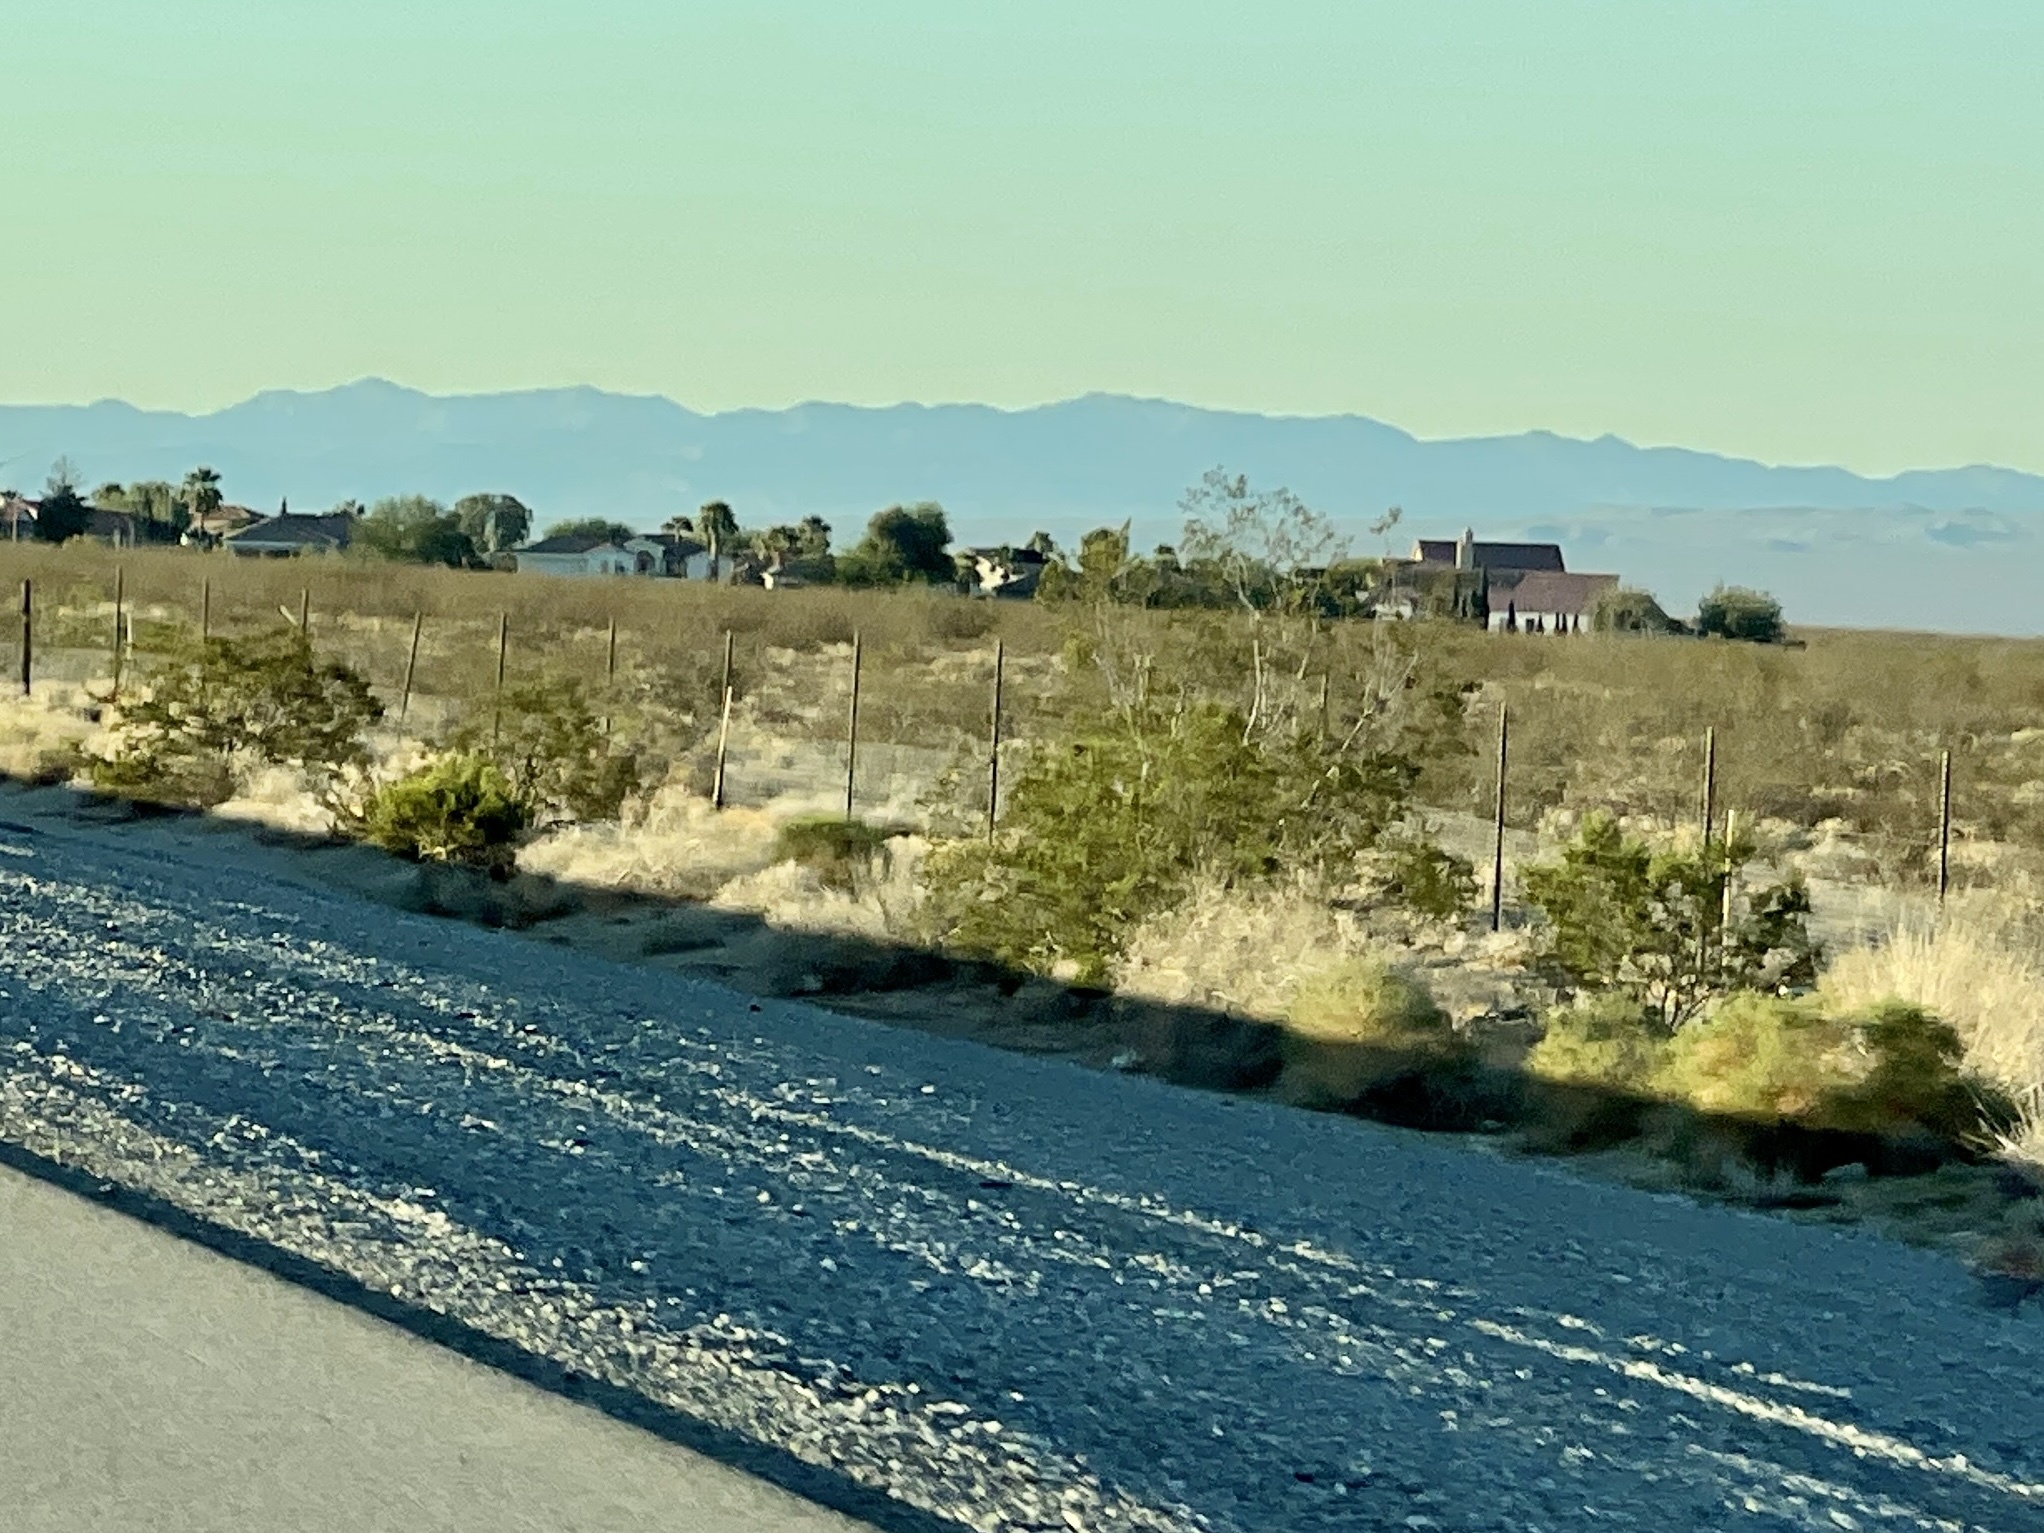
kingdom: Plantae
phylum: Tracheophyta
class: Magnoliopsida
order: Zygophyllales
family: Zygophyllaceae
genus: Larrea
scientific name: Larrea tridentata
